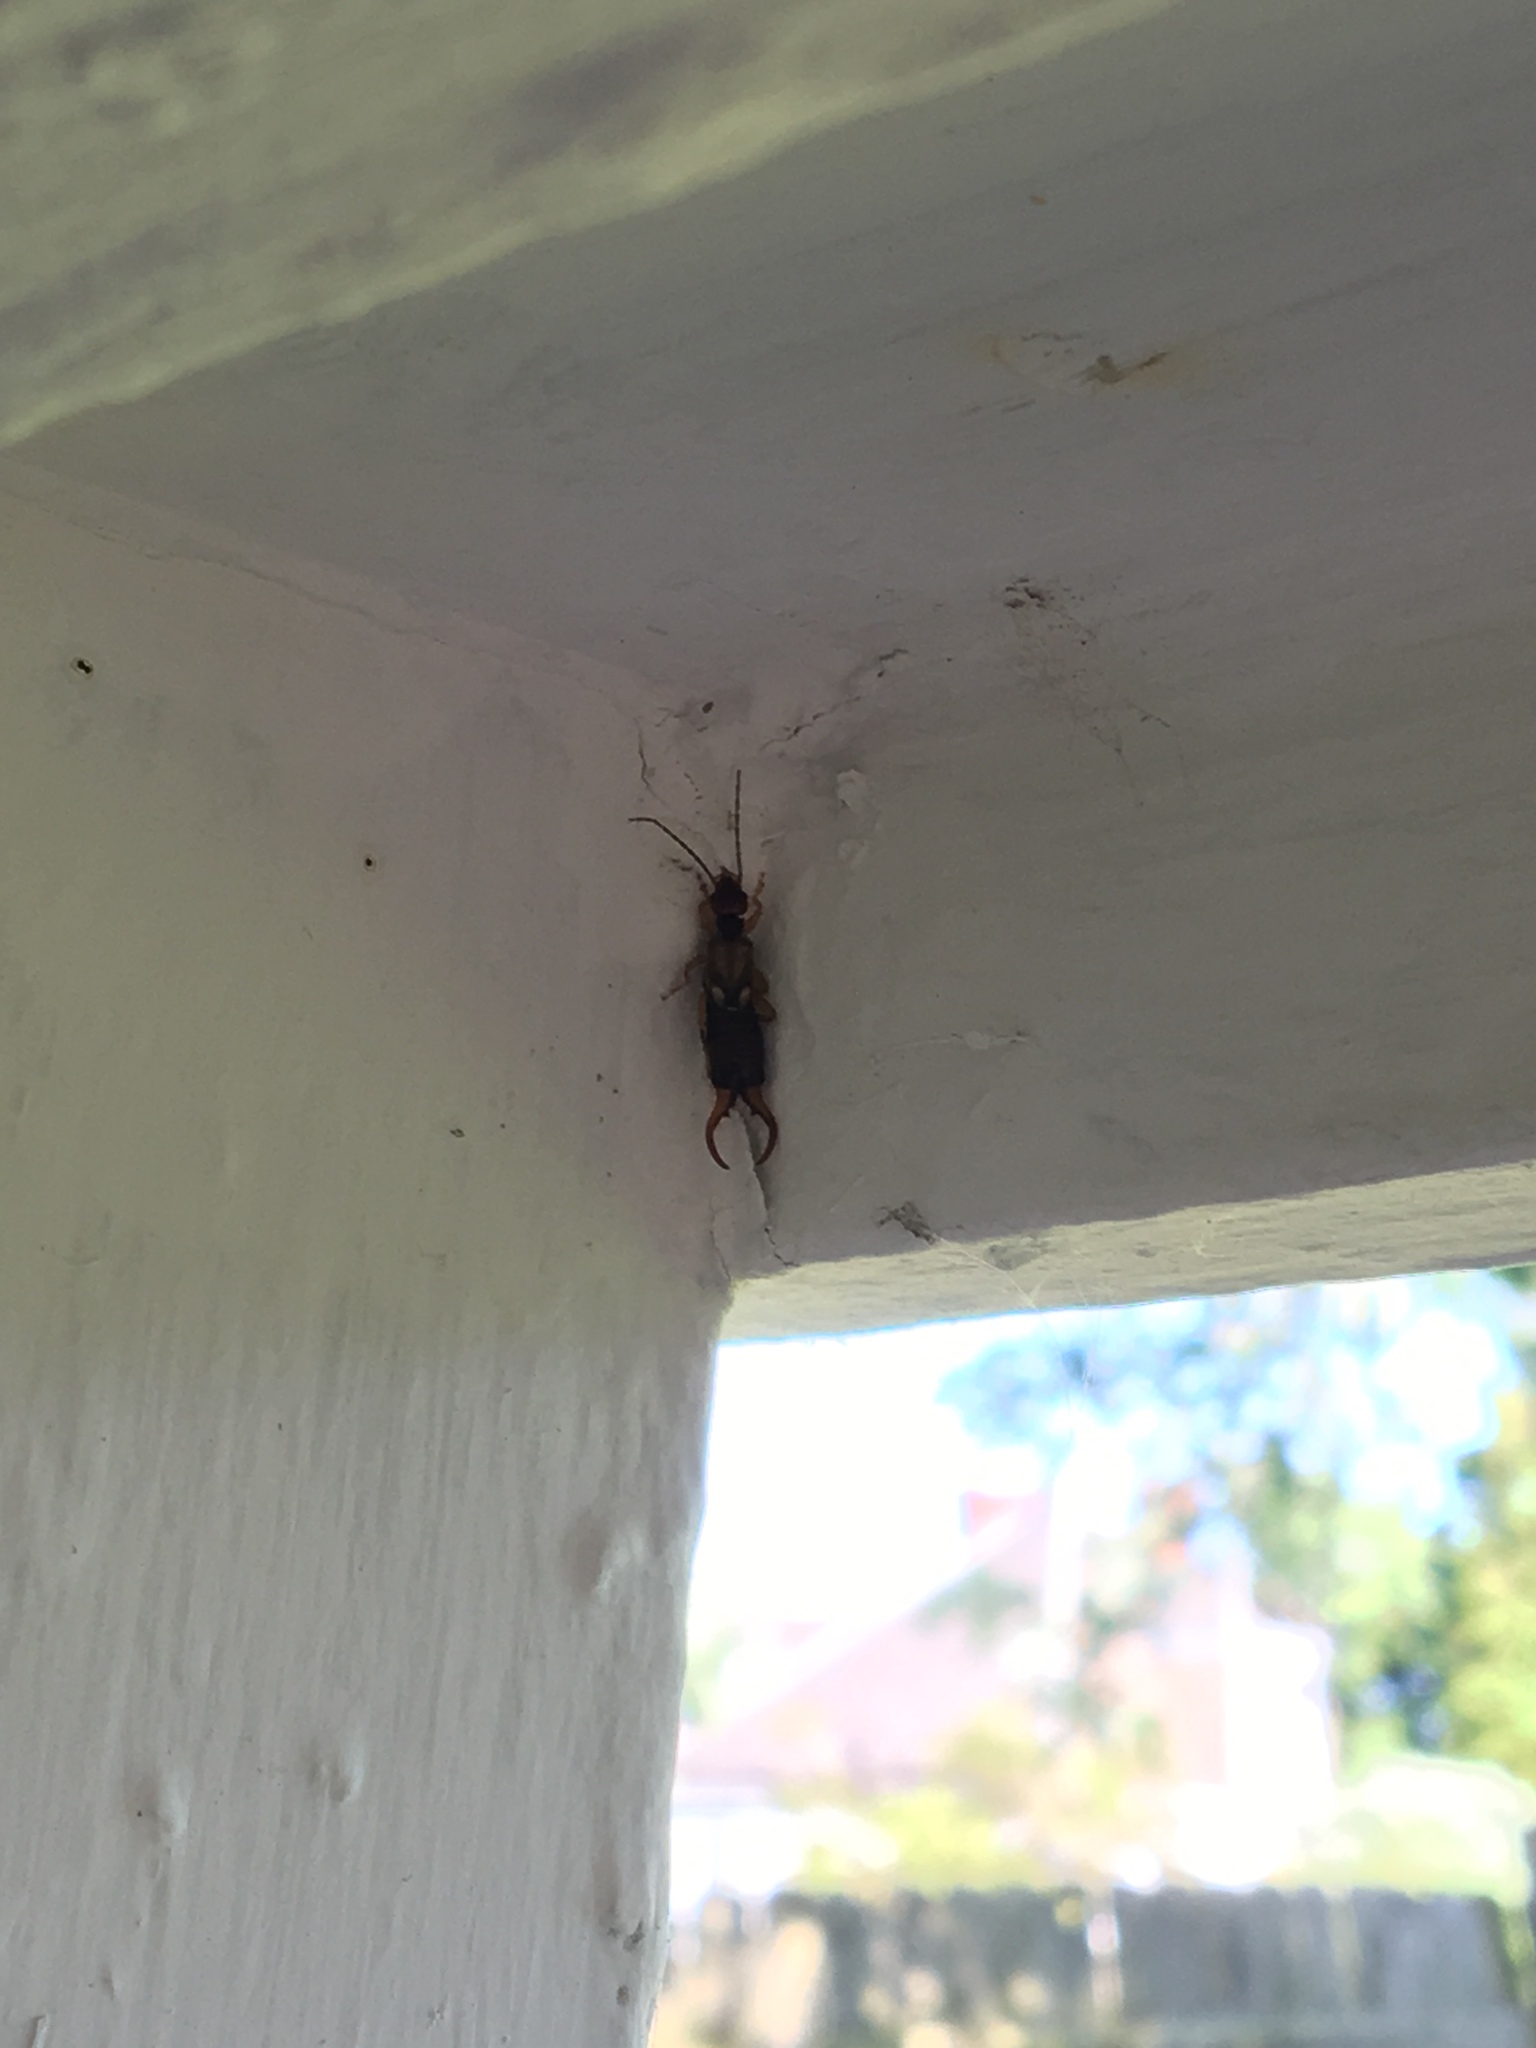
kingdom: Animalia
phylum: Arthropoda
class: Insecta
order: Dermaptera
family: Forficulidae
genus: Forficula
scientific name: Forficula
